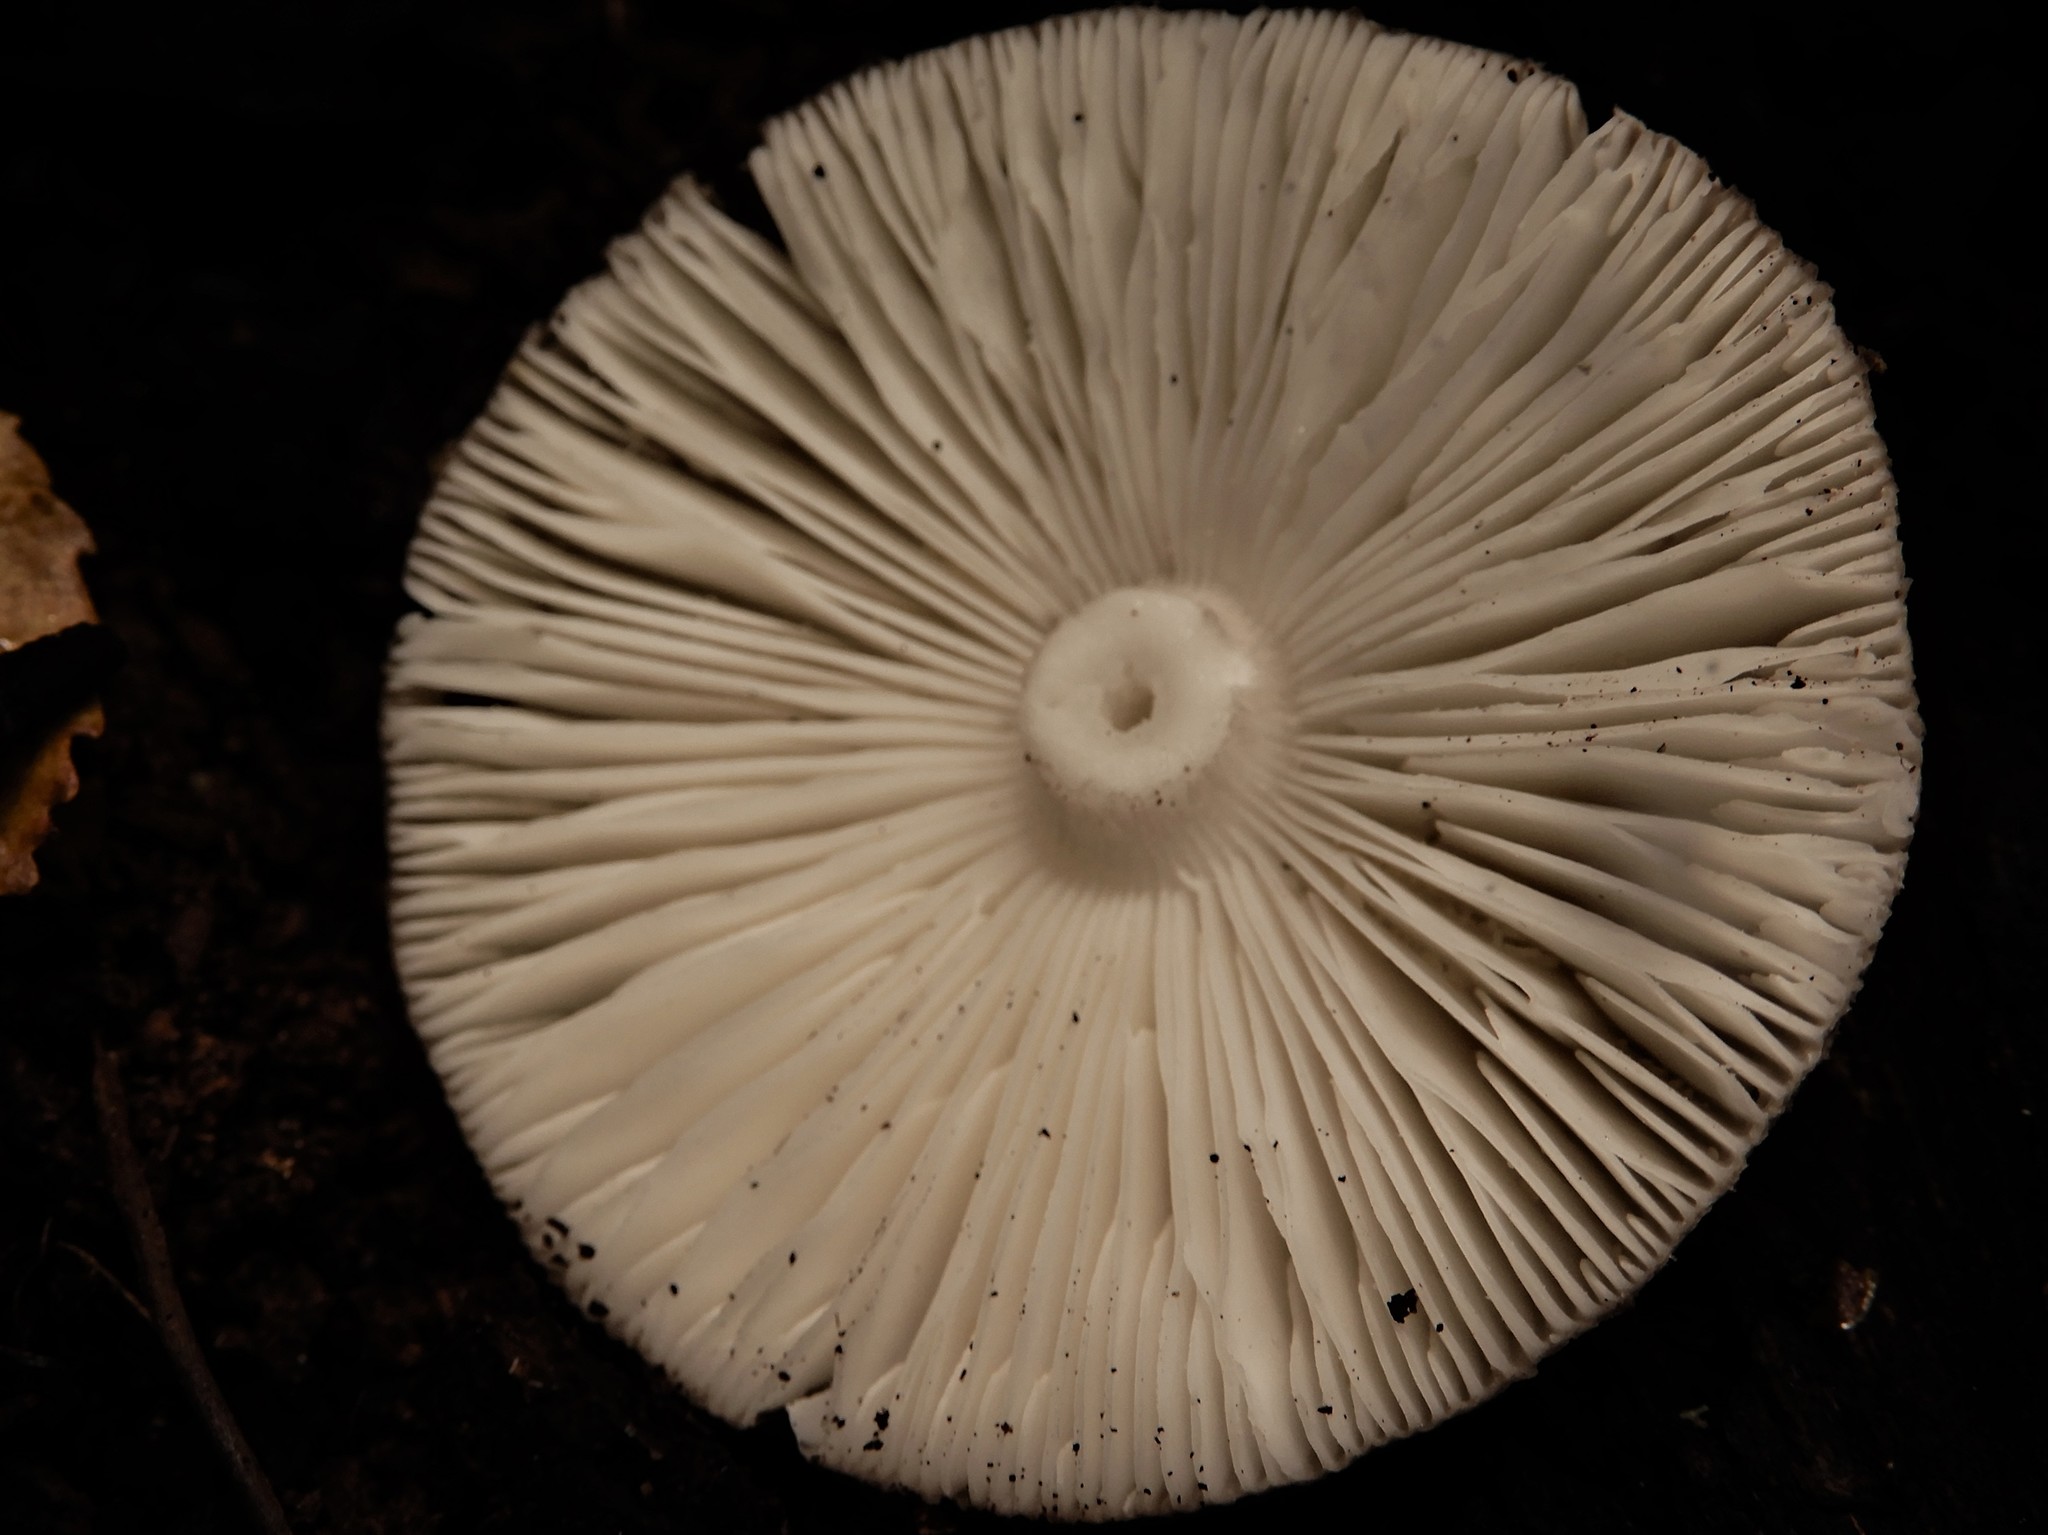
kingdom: Fungi
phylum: Basidiomycota
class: Agaricomycetes
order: Agaricales
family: Amanitaceae
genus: Amanita
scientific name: Amanita nothofagi
